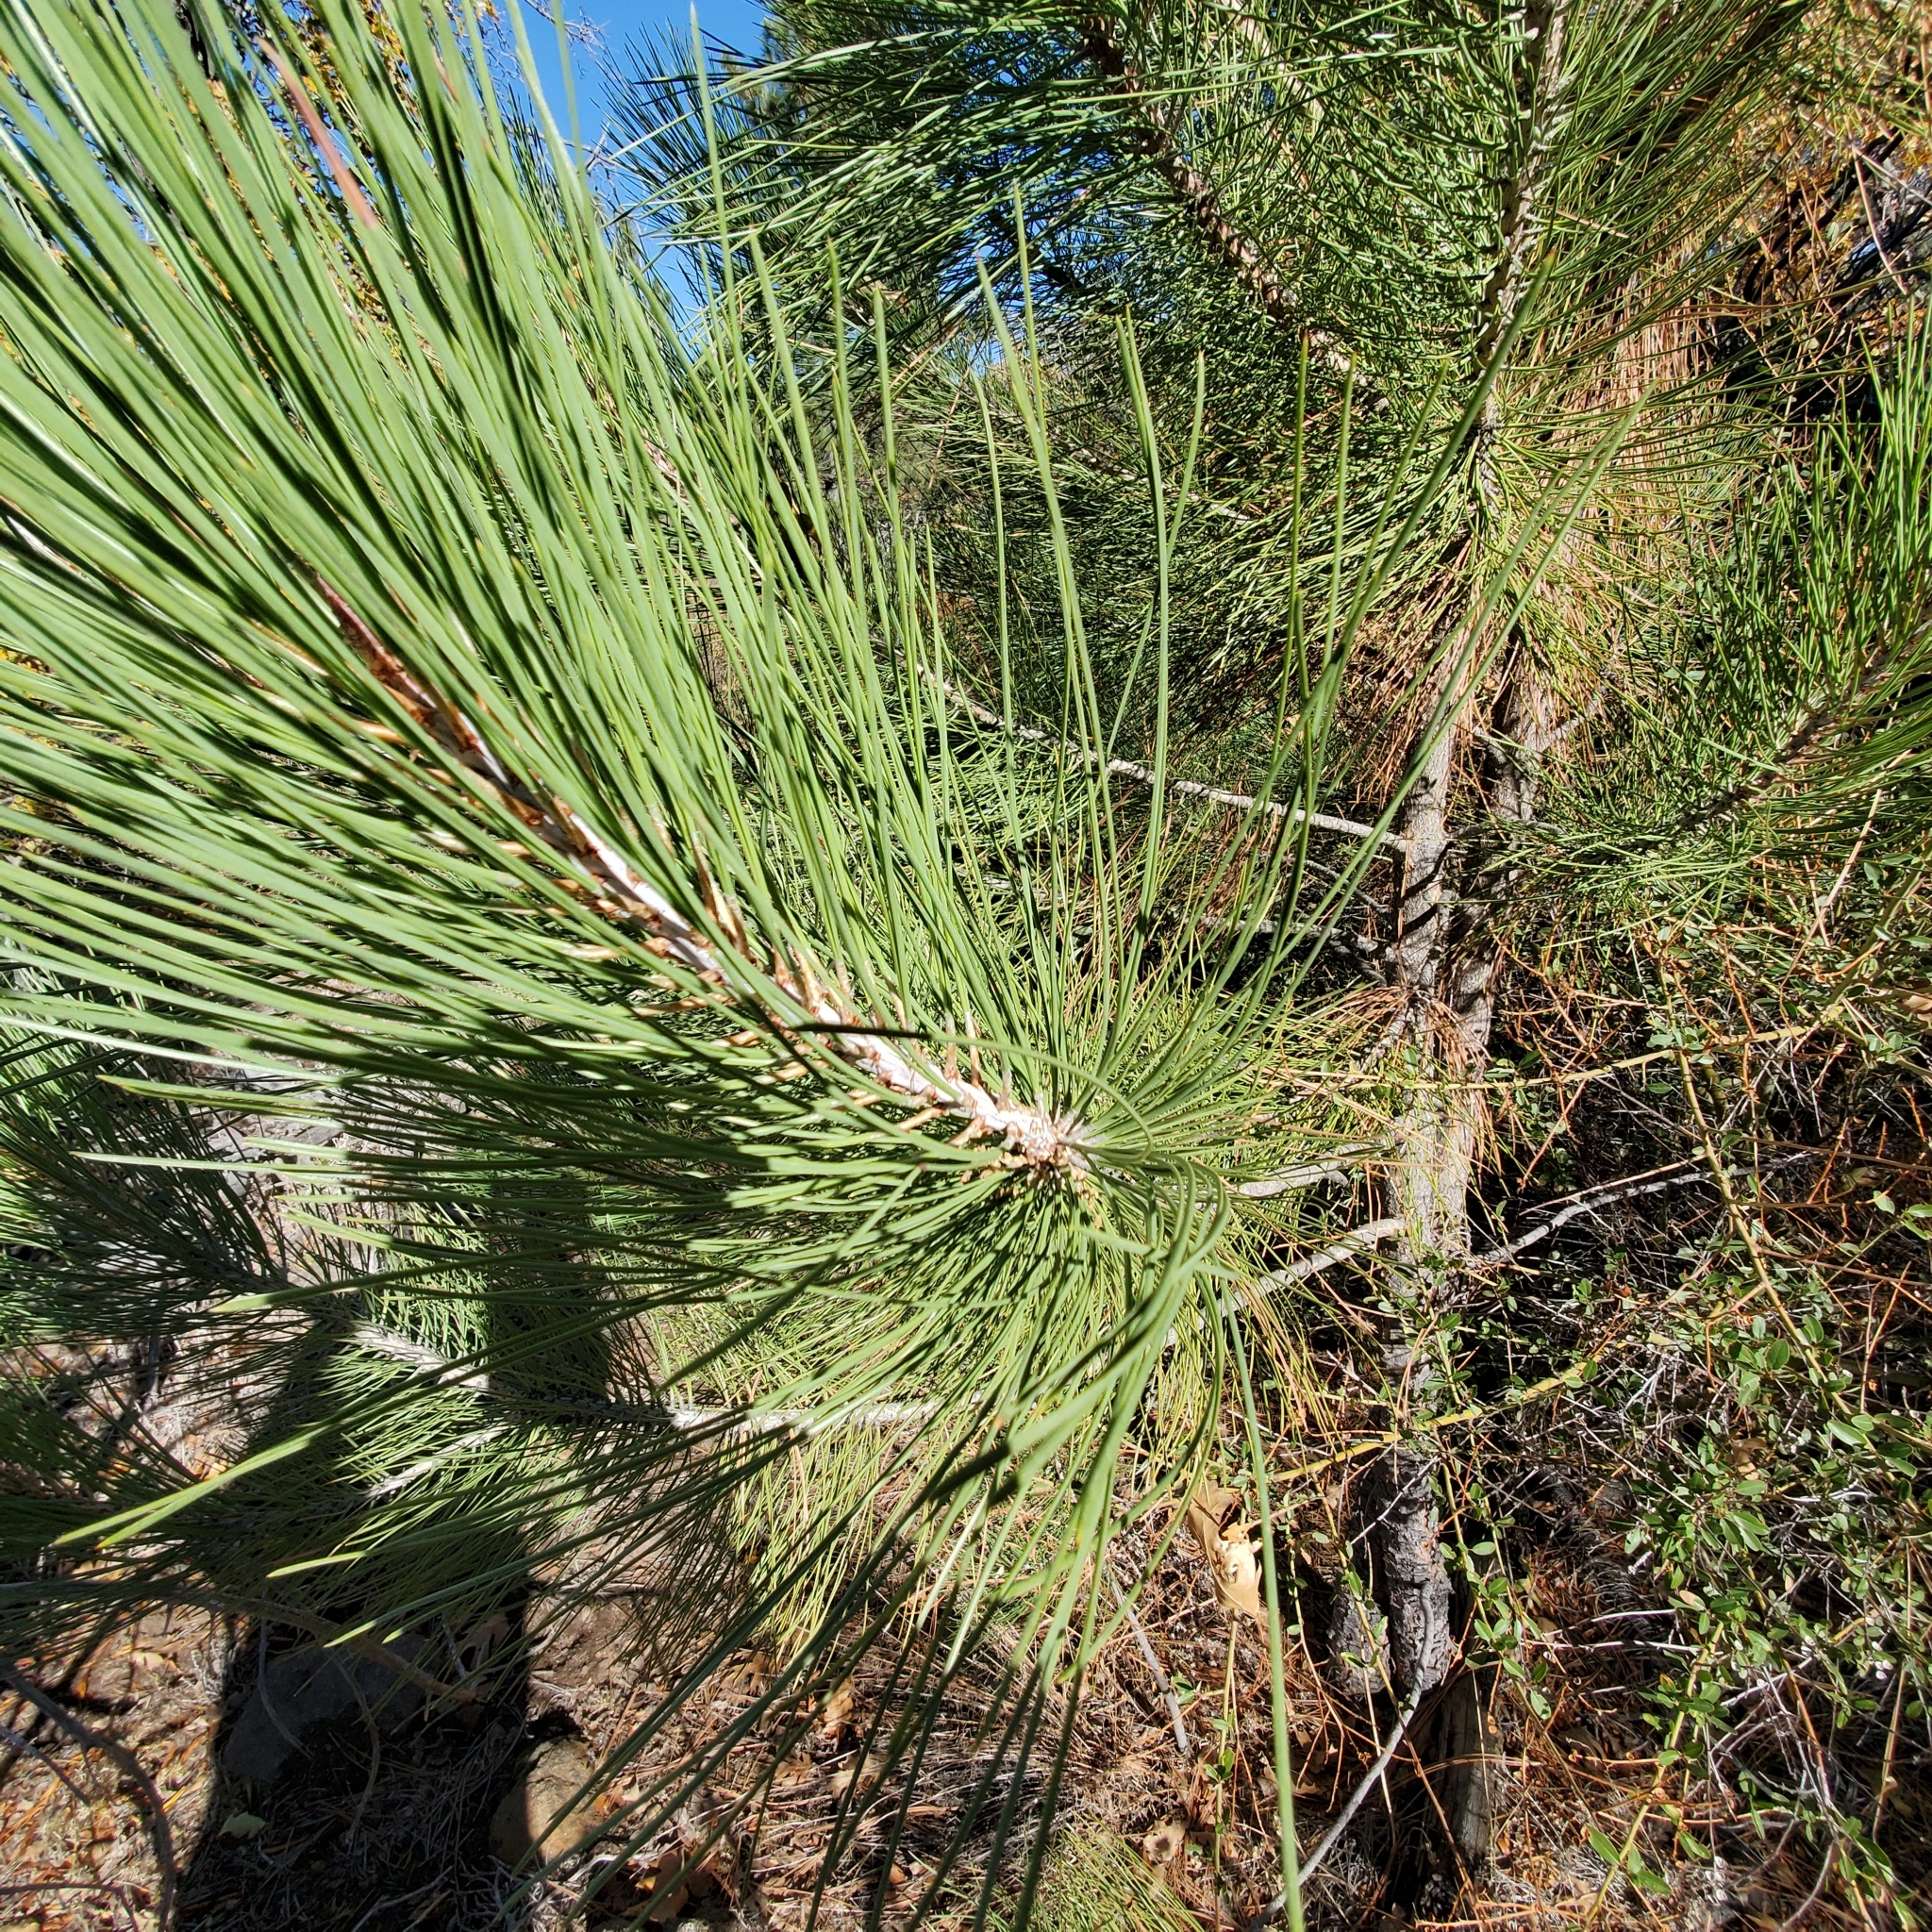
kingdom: Plantae
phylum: Tracheophyta
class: Pinopsida
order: Pinales
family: Pinaceae
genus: Pinus
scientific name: Pinus jeffreyi
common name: Jeffrey pine
